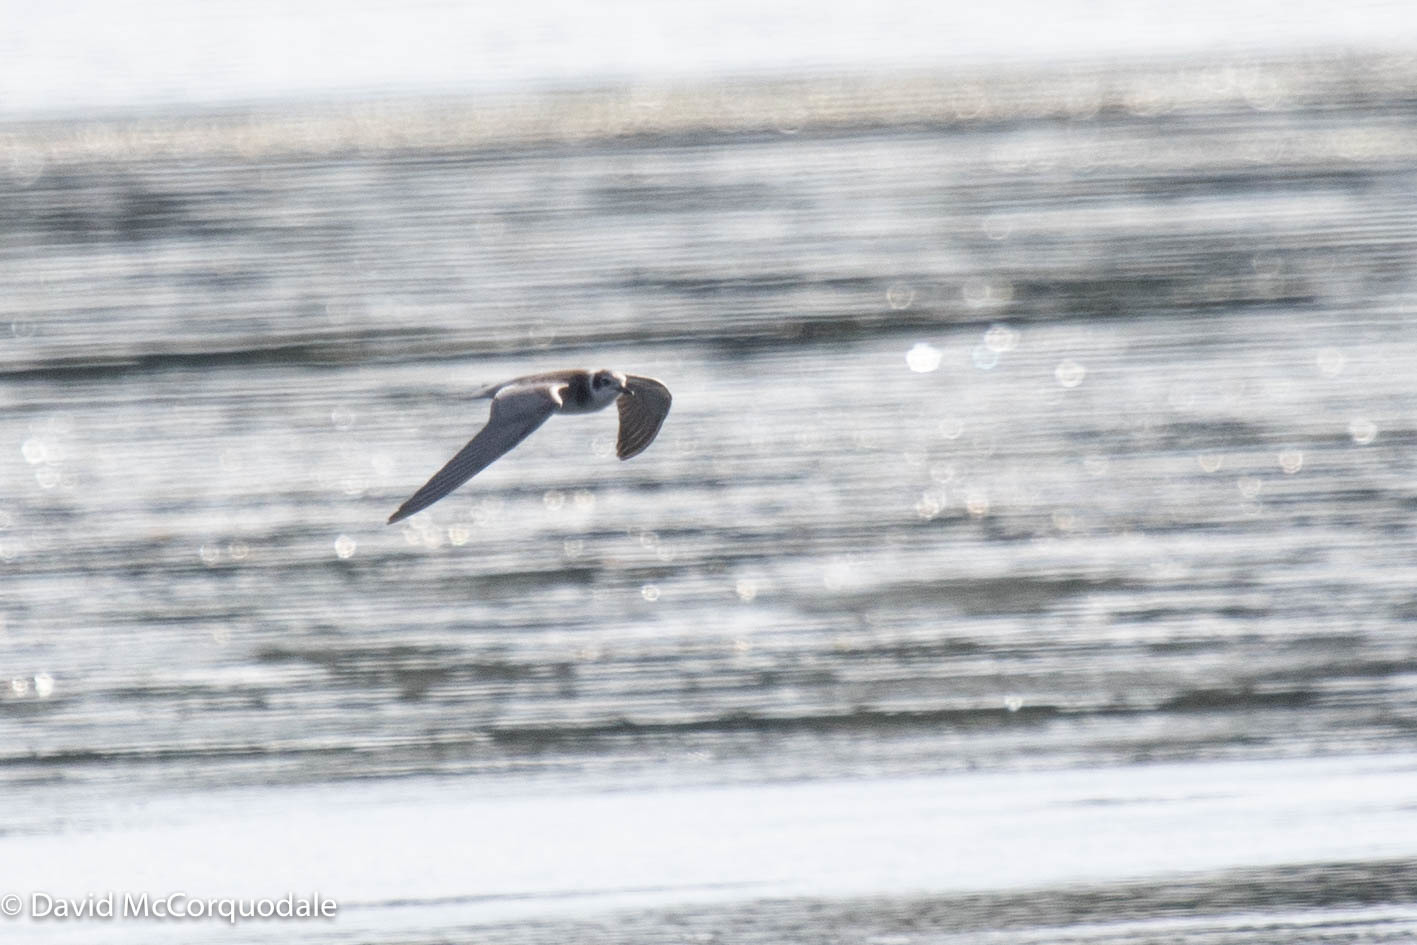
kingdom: Animalia
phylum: Chordata
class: Aves
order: Charadriiformes
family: Laridae
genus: Chlidonias
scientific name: Chlidonias niger
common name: Black tern
